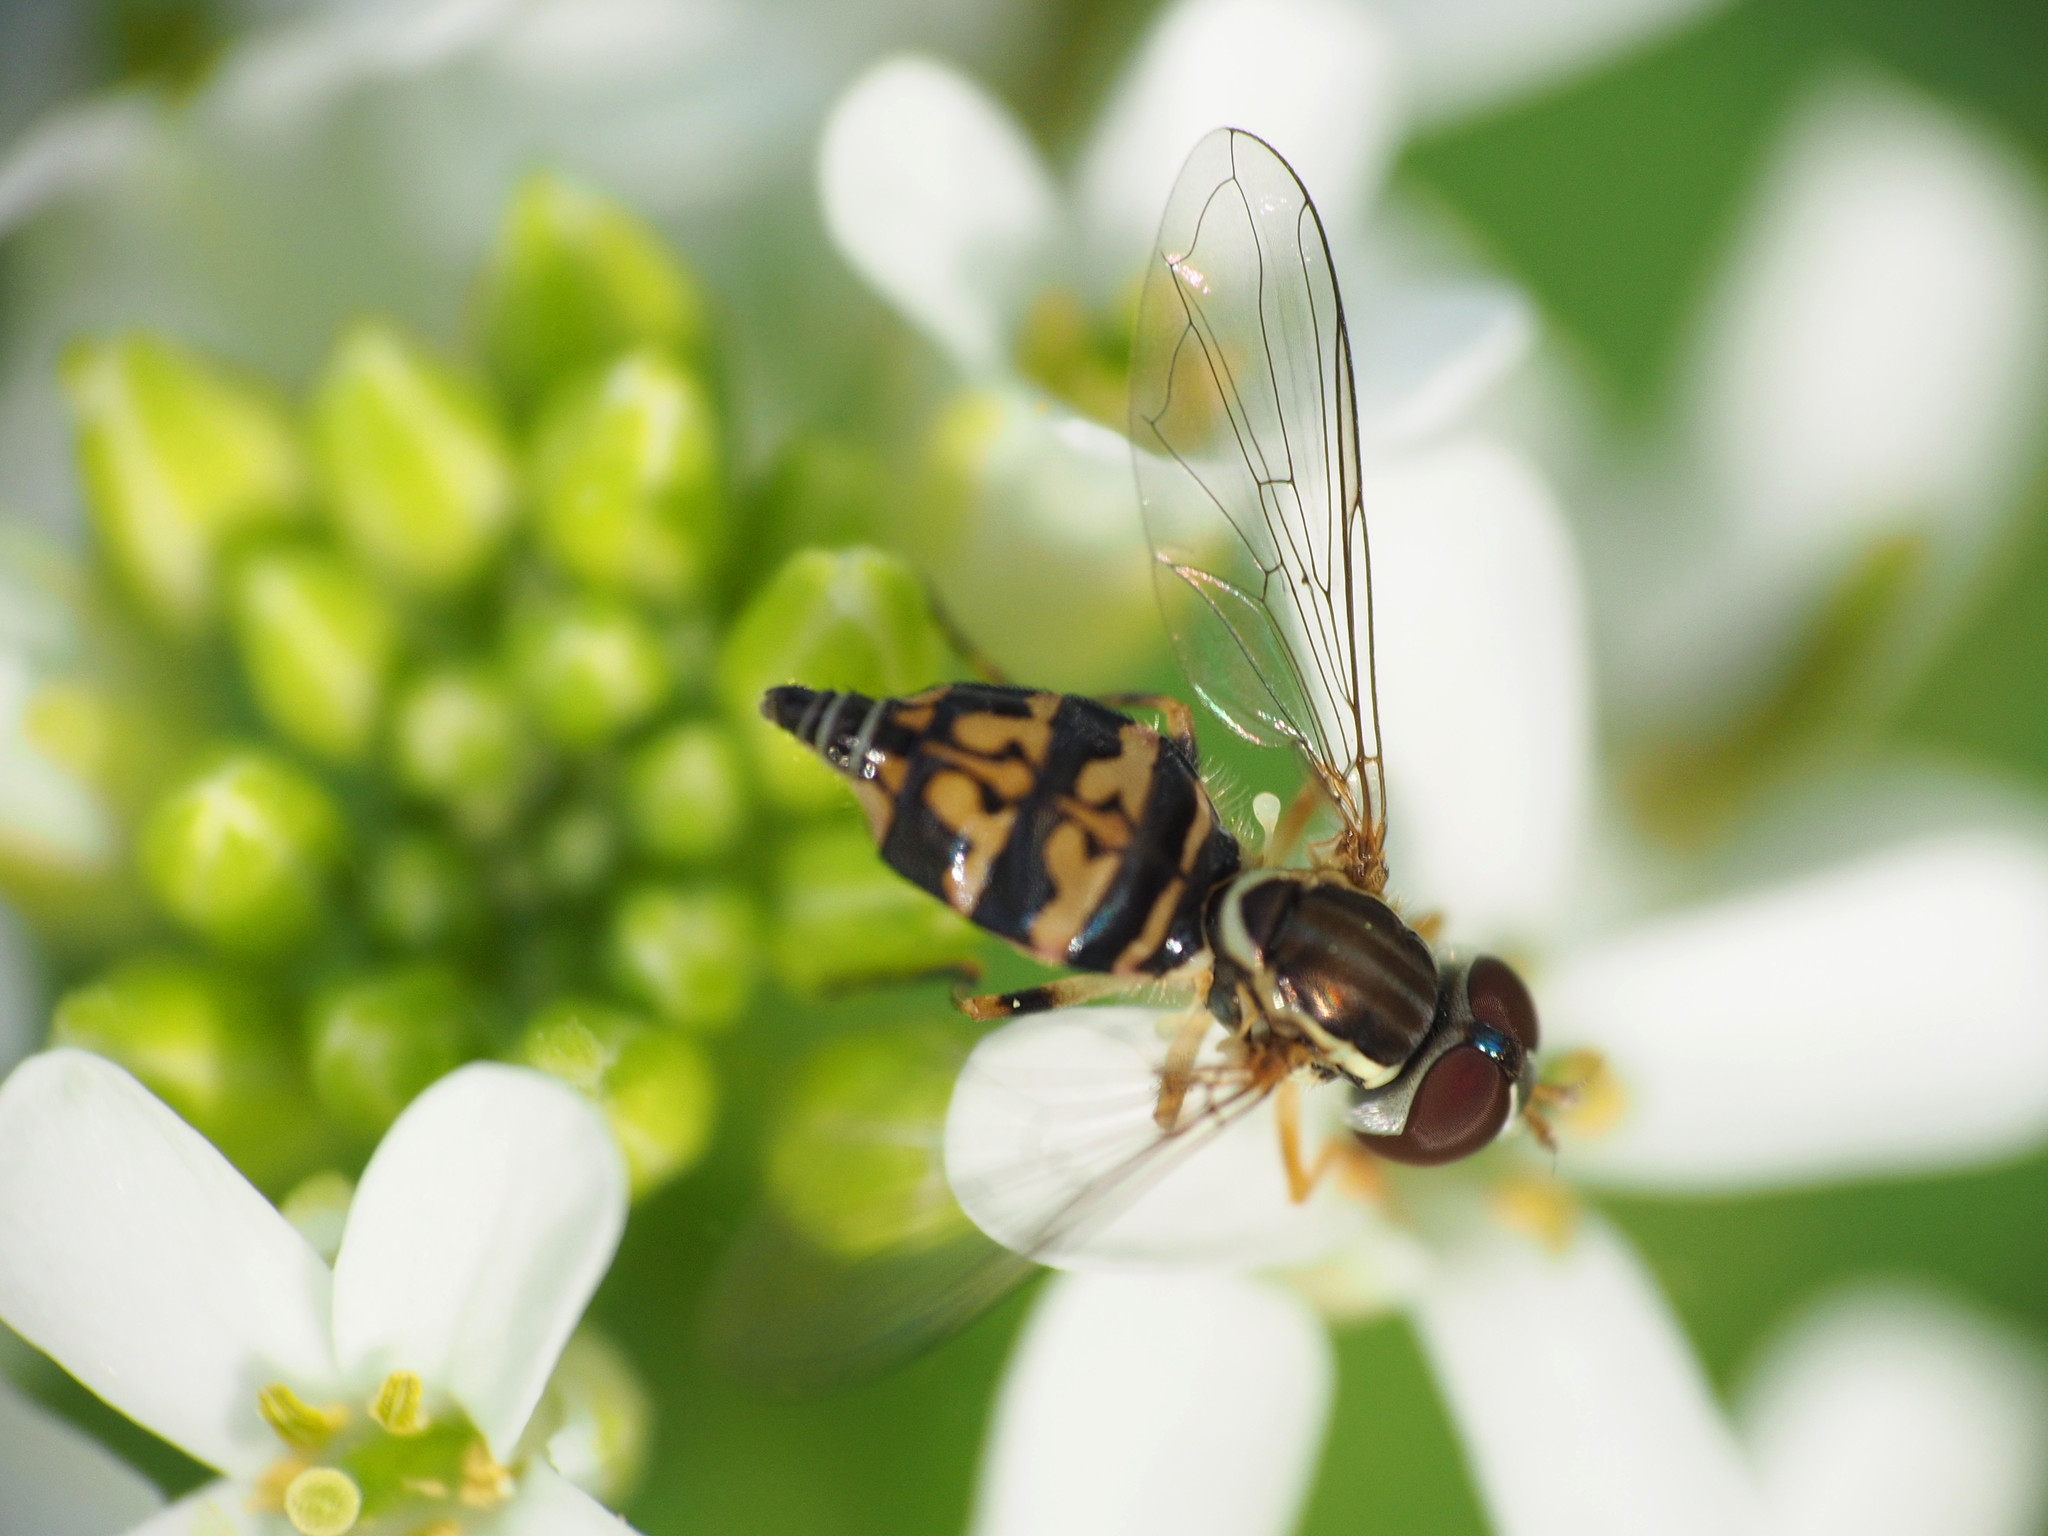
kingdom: Animalia
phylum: Arthropoda
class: Insecta
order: Diptera
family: Syrphidae
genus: Toxomerus
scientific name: Toxomerus geminatus
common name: Eastern calligrapher
